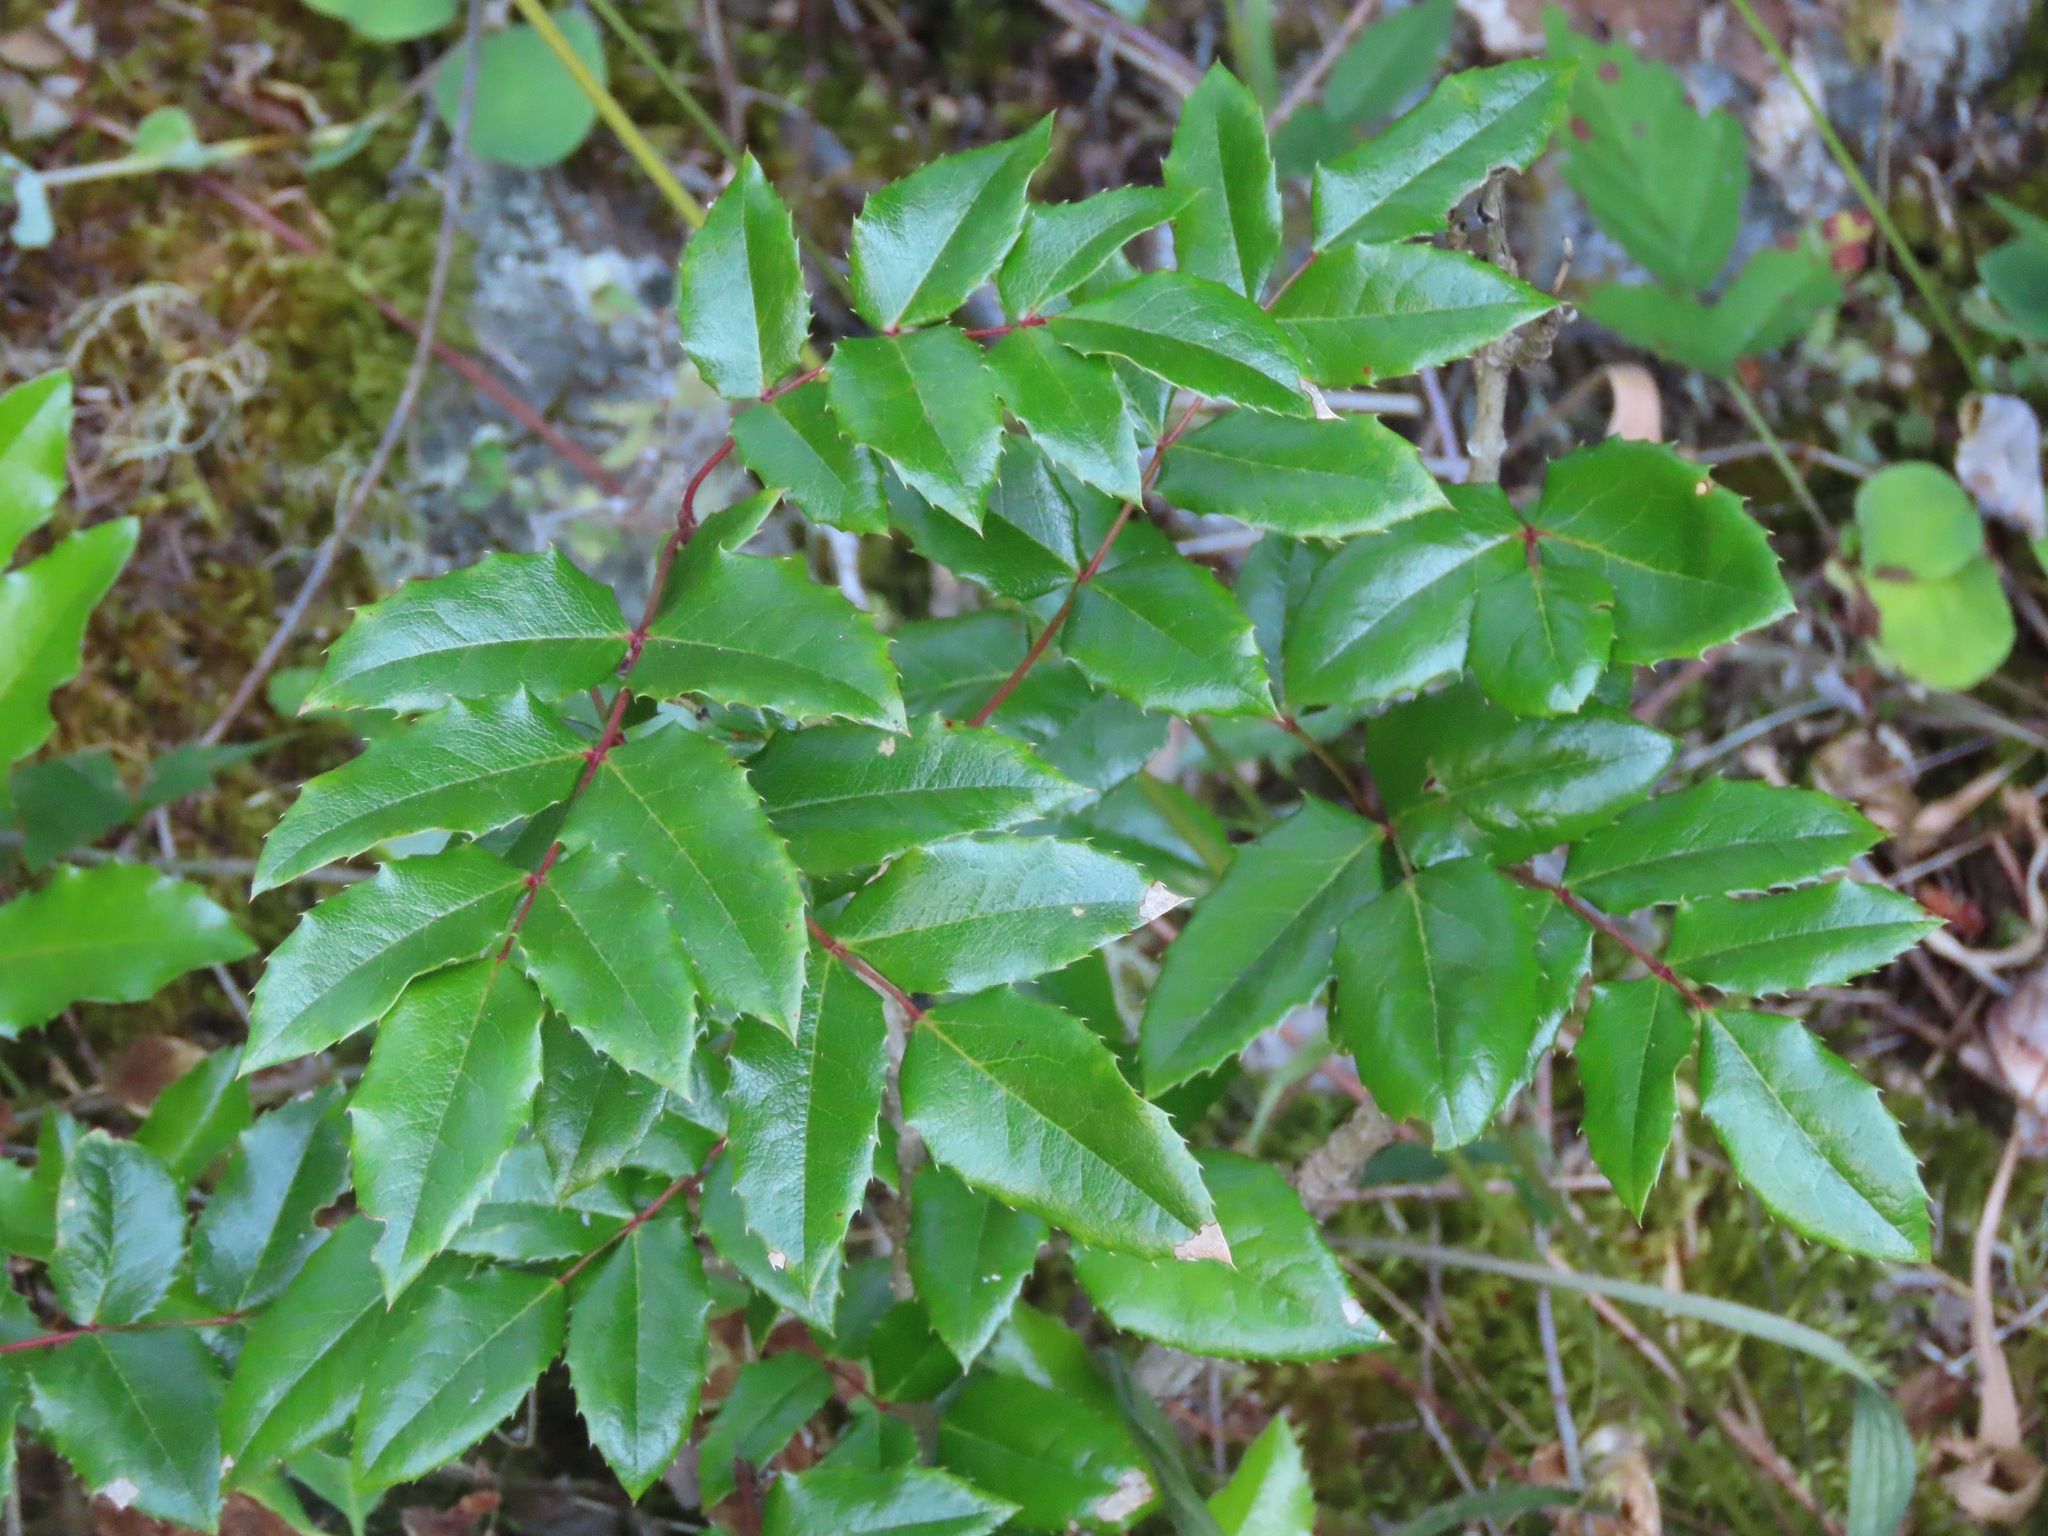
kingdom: Plantae
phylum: Tracheophyta
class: Magnoliopsida
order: Ranunculales
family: Berberidaceae
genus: Mahonia
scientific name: Mahonia aquifolium
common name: Oregon-grape
